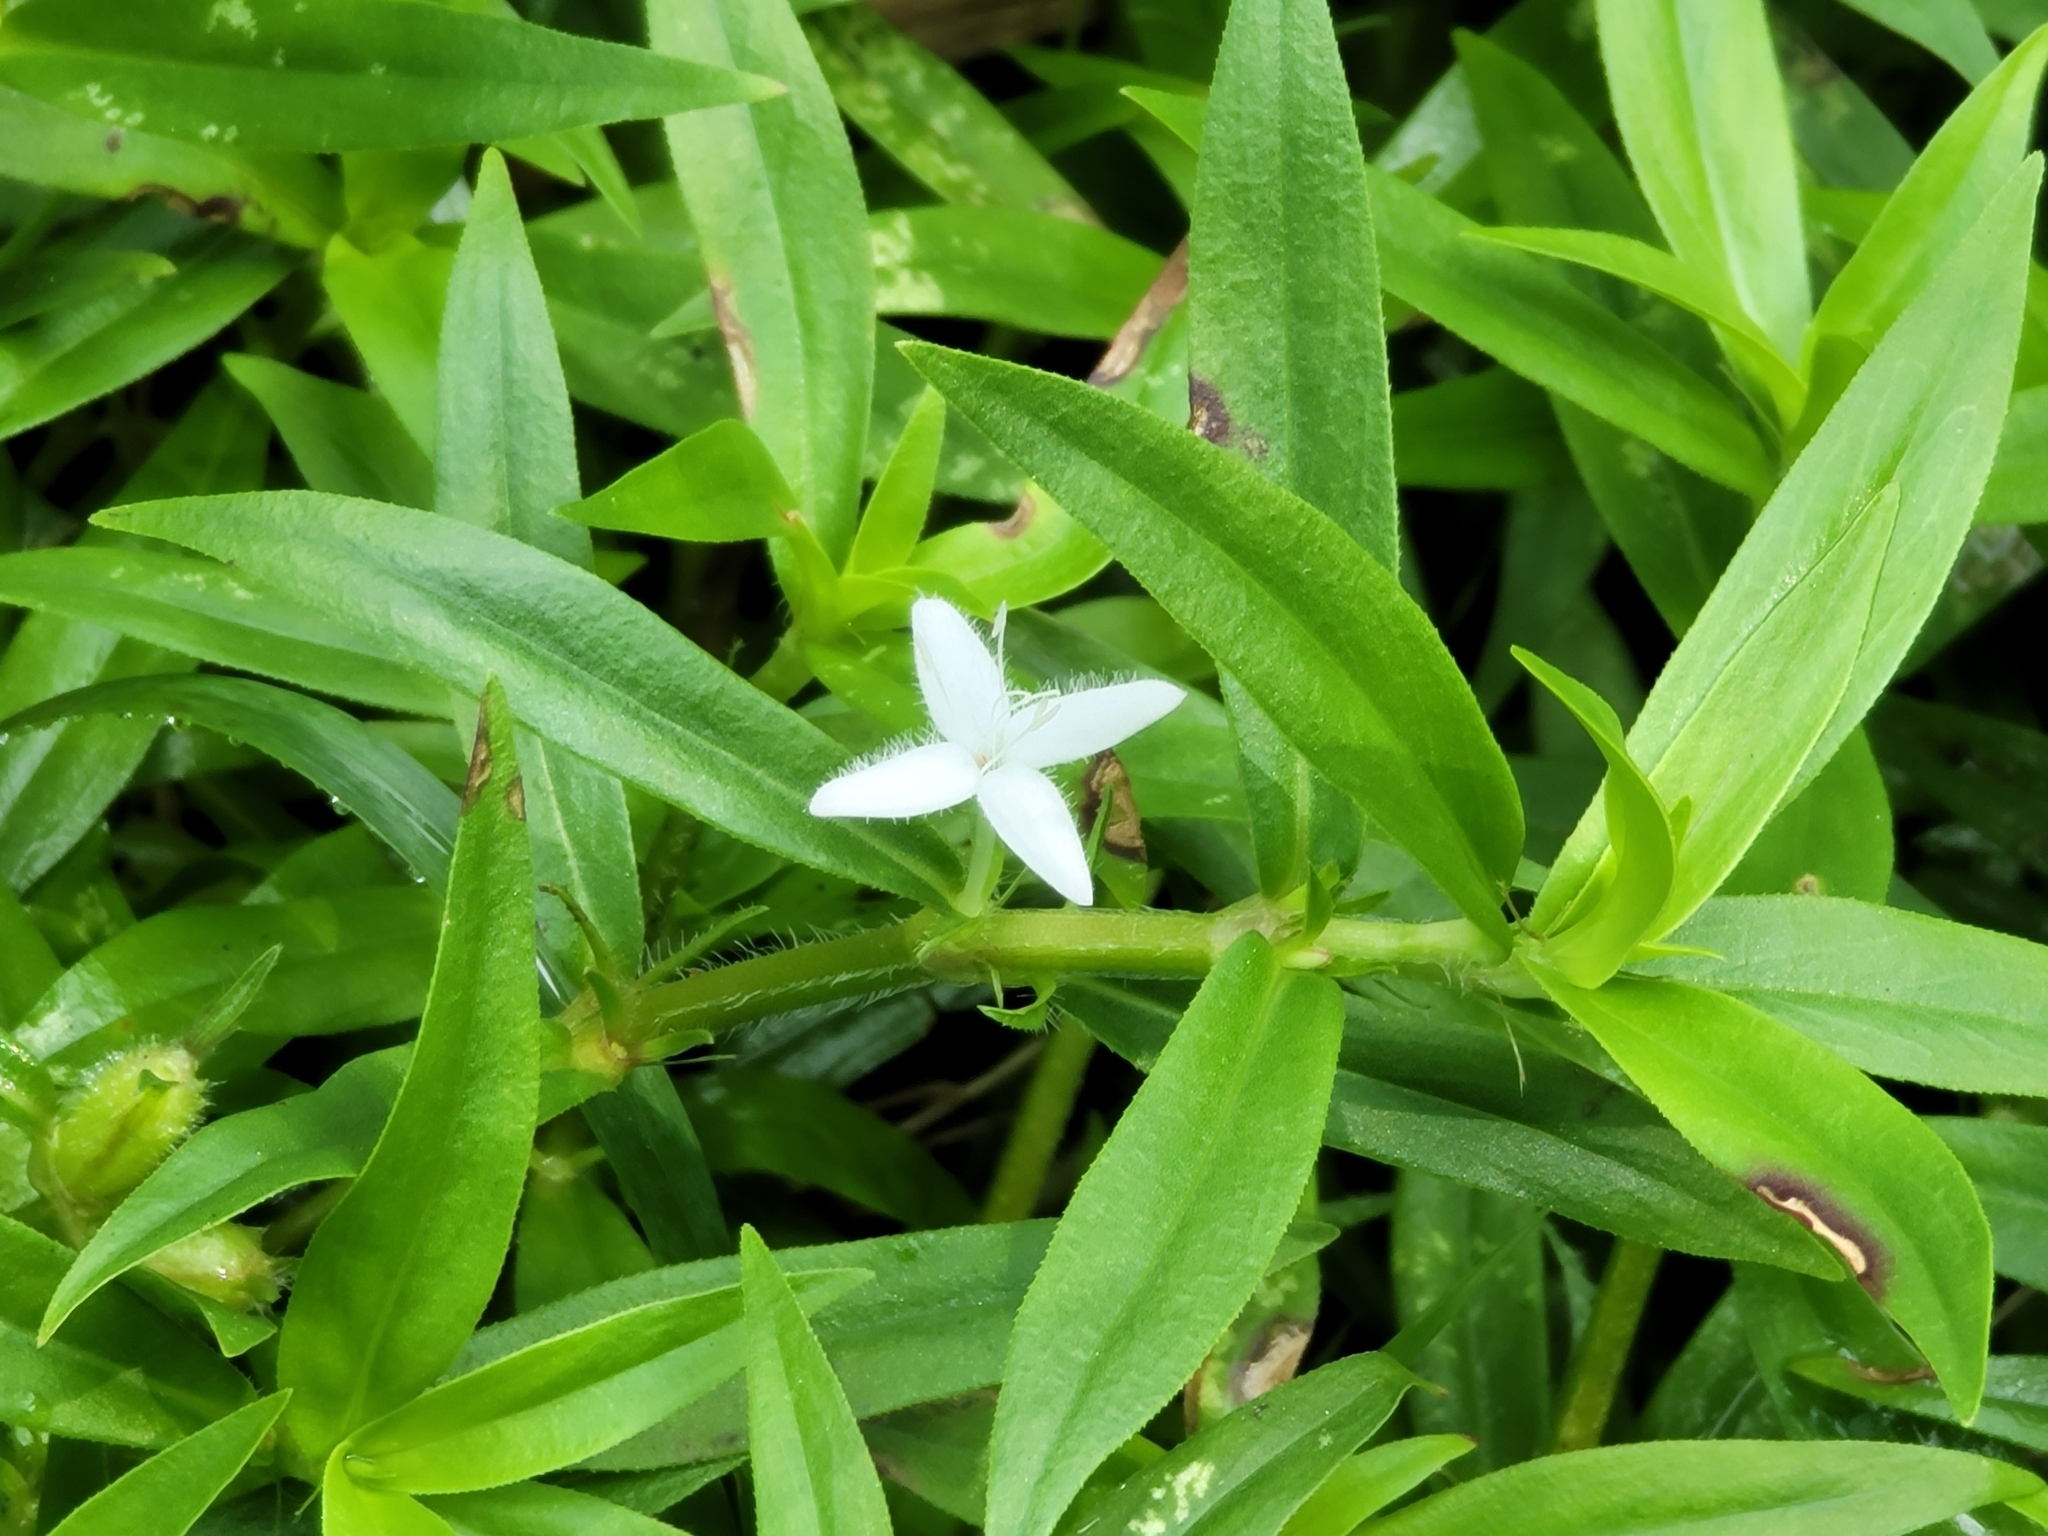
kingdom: Plantae
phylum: Tracheophyta
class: Magnoliopsida
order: Gentianales
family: Rubiaceae
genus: Diodia
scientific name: Diodia virginiana
